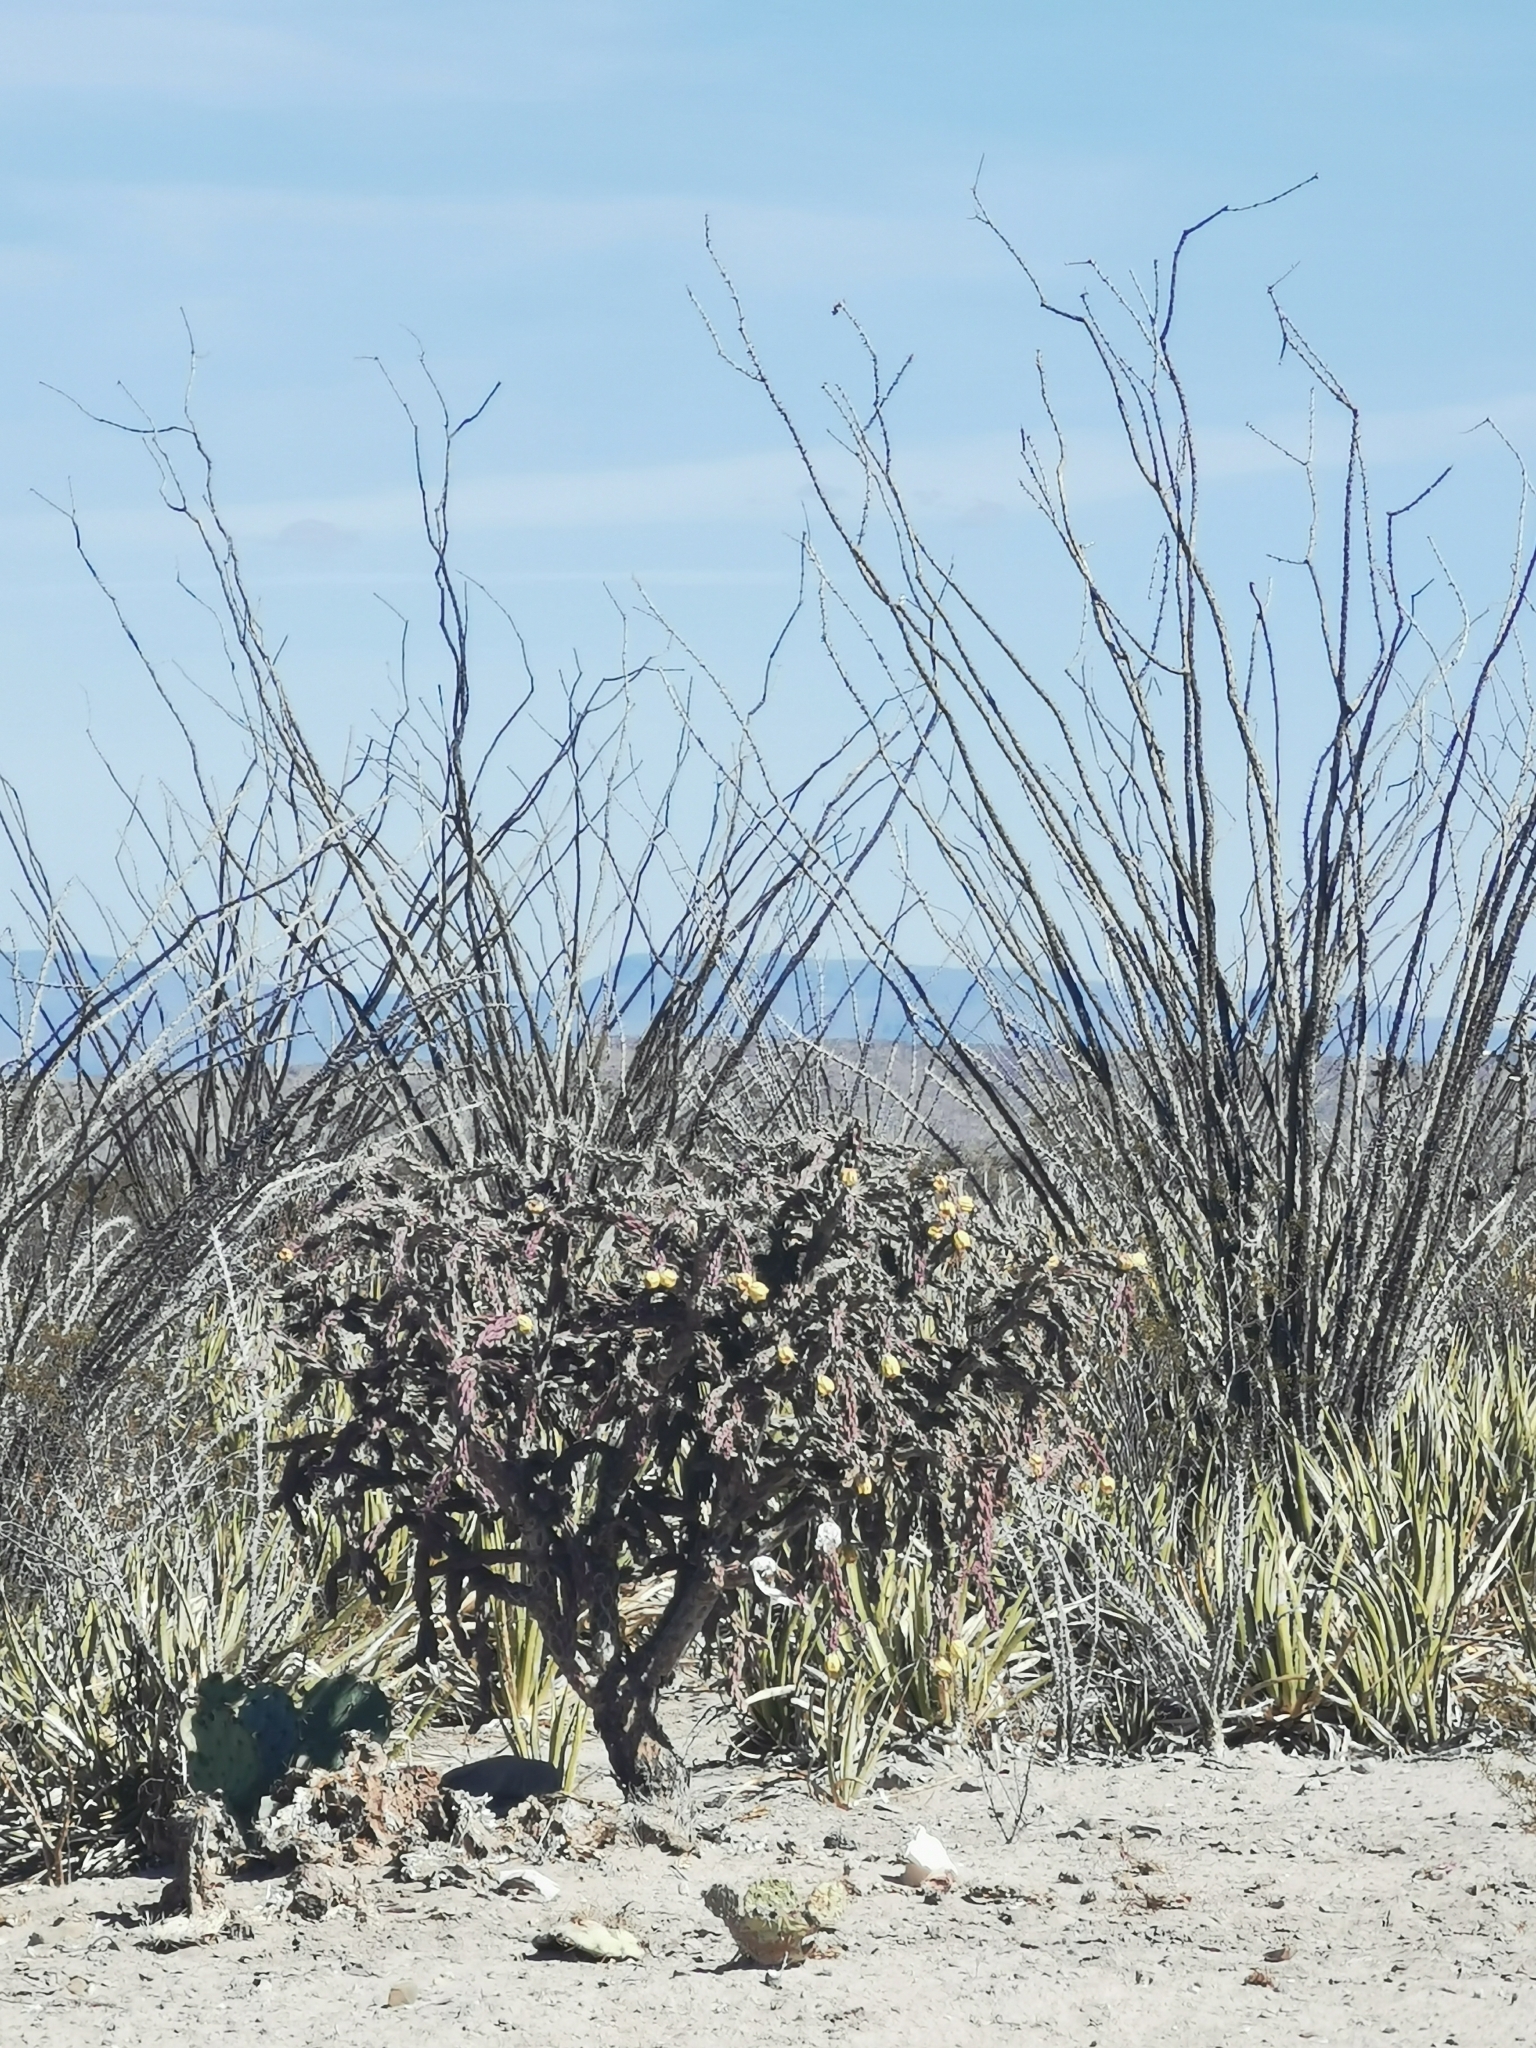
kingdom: Plantae
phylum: Tracheophyta
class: Magnoliopsida
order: Caryophyllales
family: Cactaceae
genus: Cylindropuntia
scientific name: Cylindropuntia imbricata
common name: Candelabrum cactus
